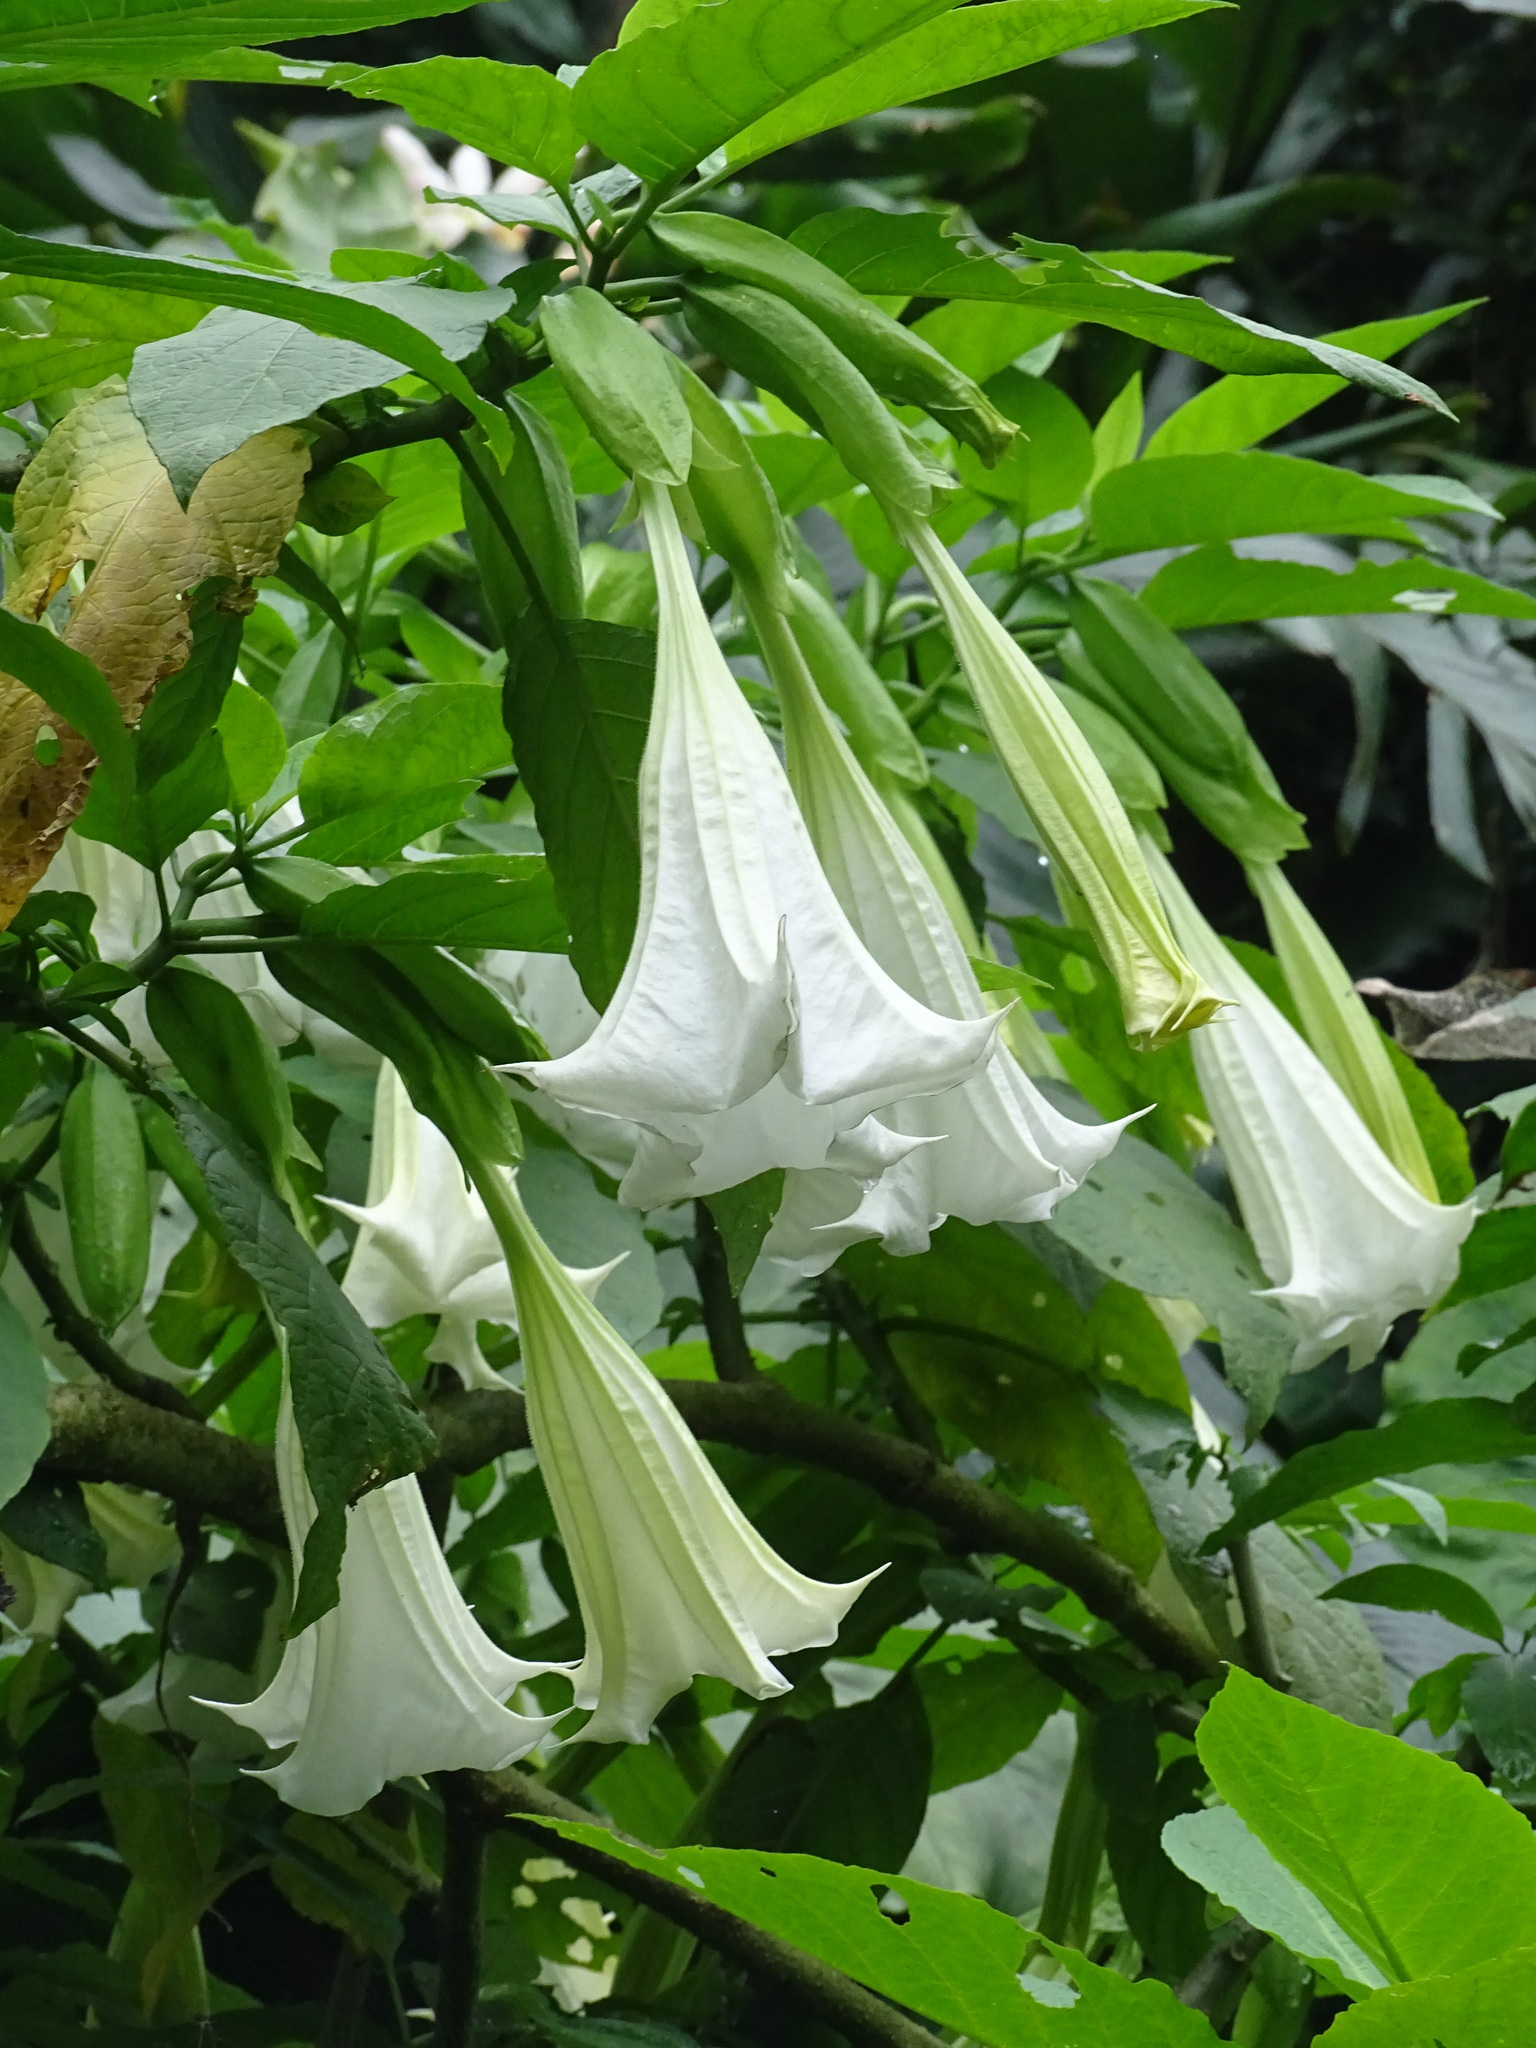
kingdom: Plantae
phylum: Tracheophyta
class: Magnoliopsida
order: Solanales
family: Solanaceae
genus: Brugmansia
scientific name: Brugmansia suaveolens
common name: Angel's tears
